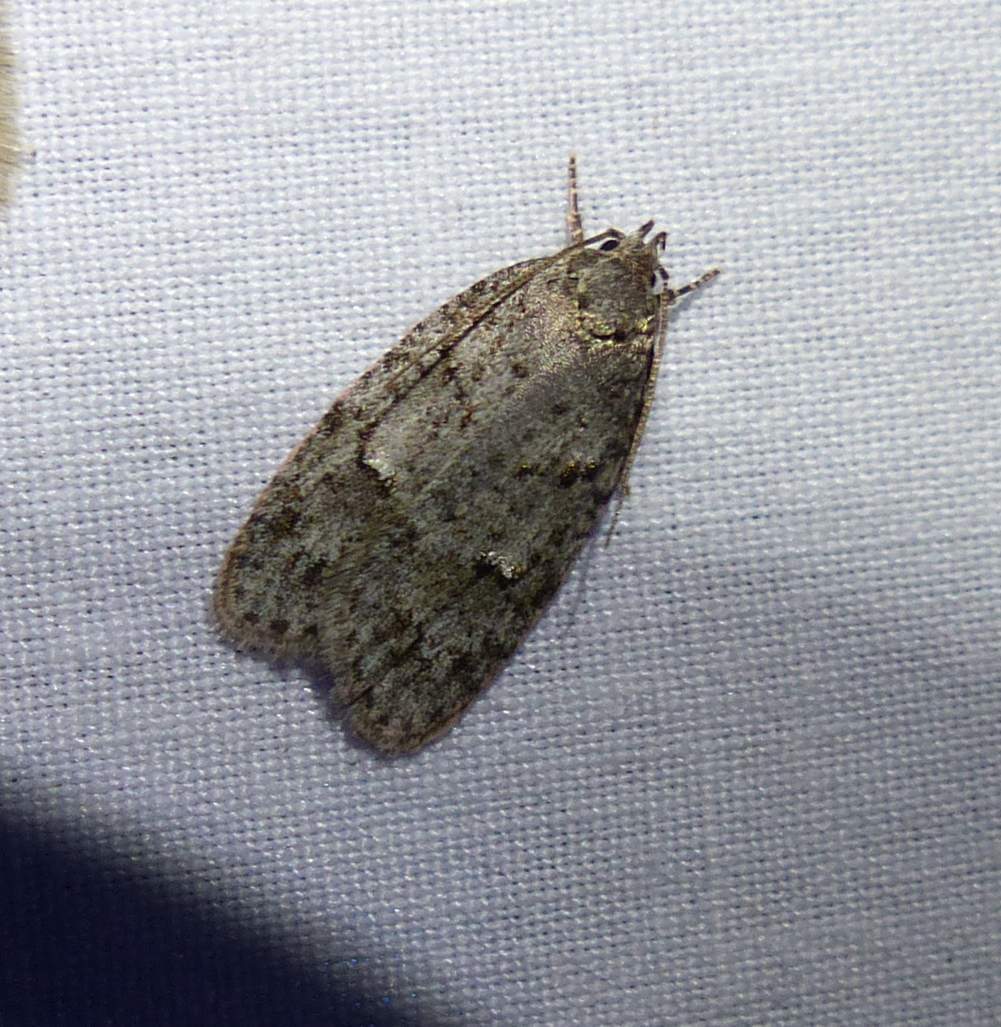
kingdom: Animalia
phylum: Arthropoda
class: Insecta
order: Lepidoptera
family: Depressariidae
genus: Bibarrambla
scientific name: Bibarrambla allenella
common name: Bog bibarrambla moth
